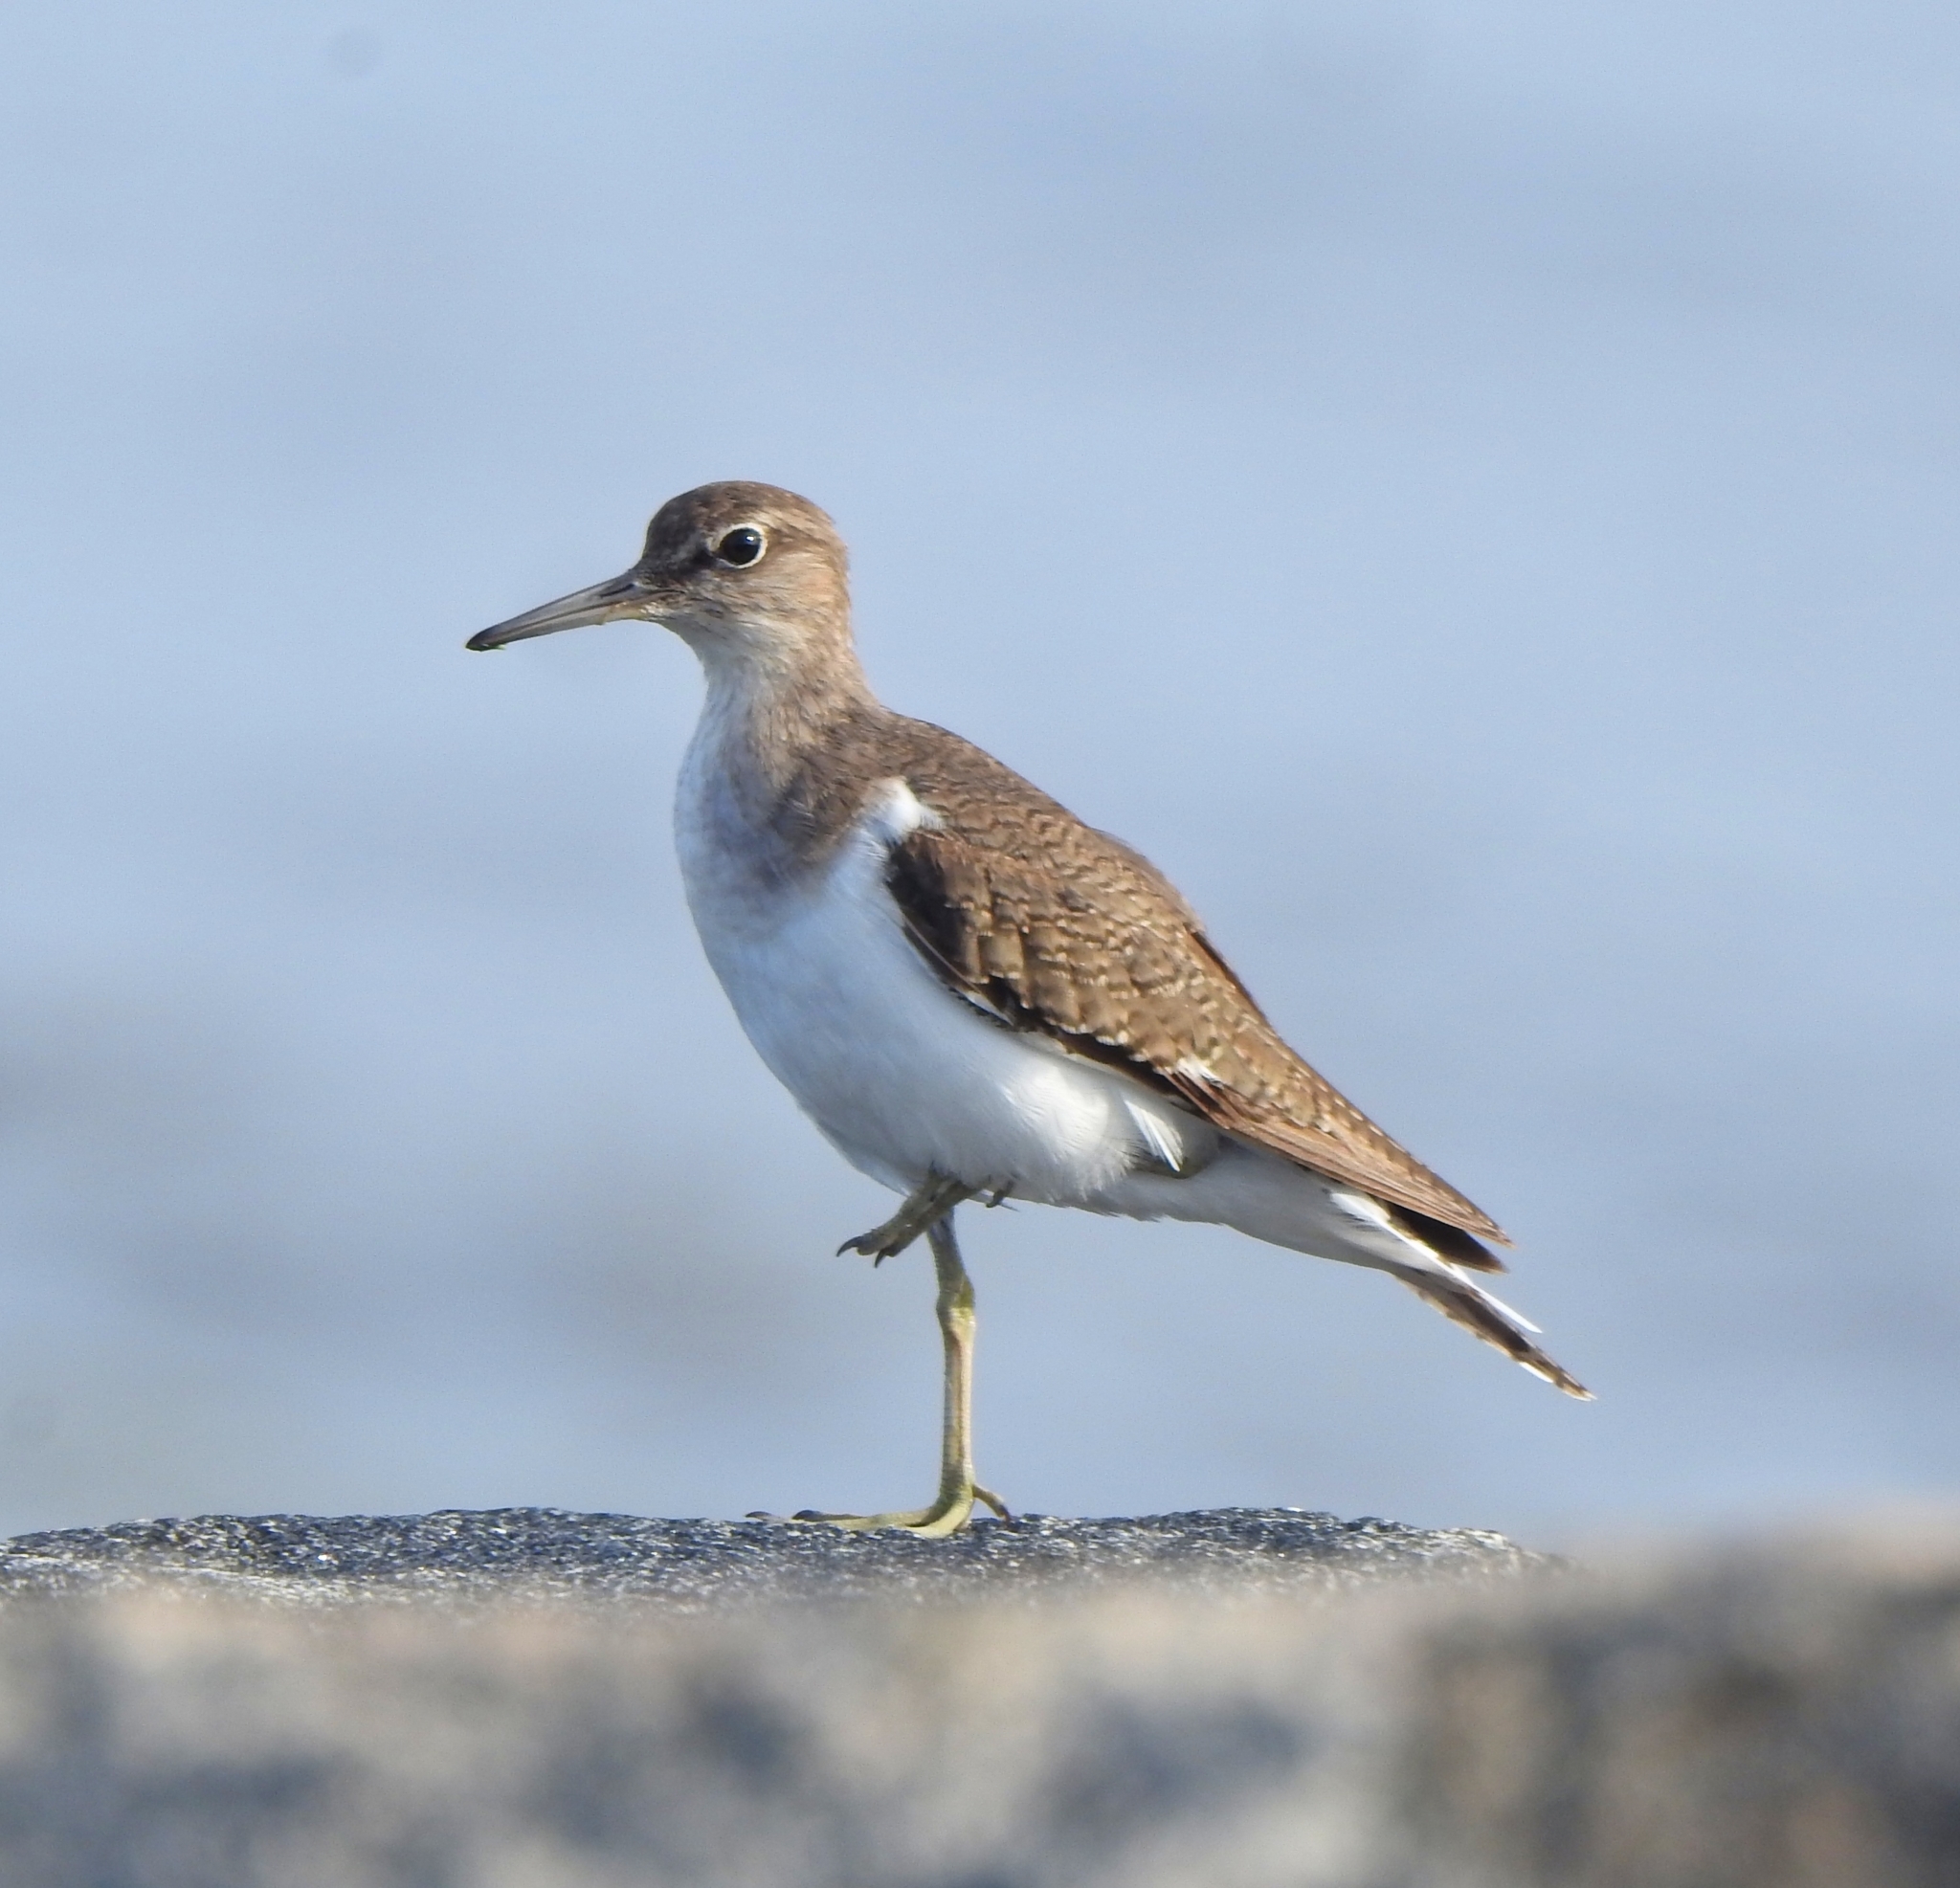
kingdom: Animalia
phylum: Chordata
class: Aves
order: Charadriiformes
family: Scolopacidae
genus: Actitis
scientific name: Actitis hypoleucos
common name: Common sandpiper
